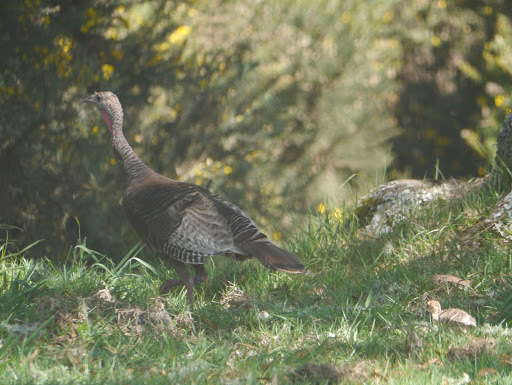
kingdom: Animalia
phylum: Chordata
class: Aves
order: Galliformes
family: Phasianidae
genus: Meleagris
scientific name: Meleagris gallopavo
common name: Wild turkey
